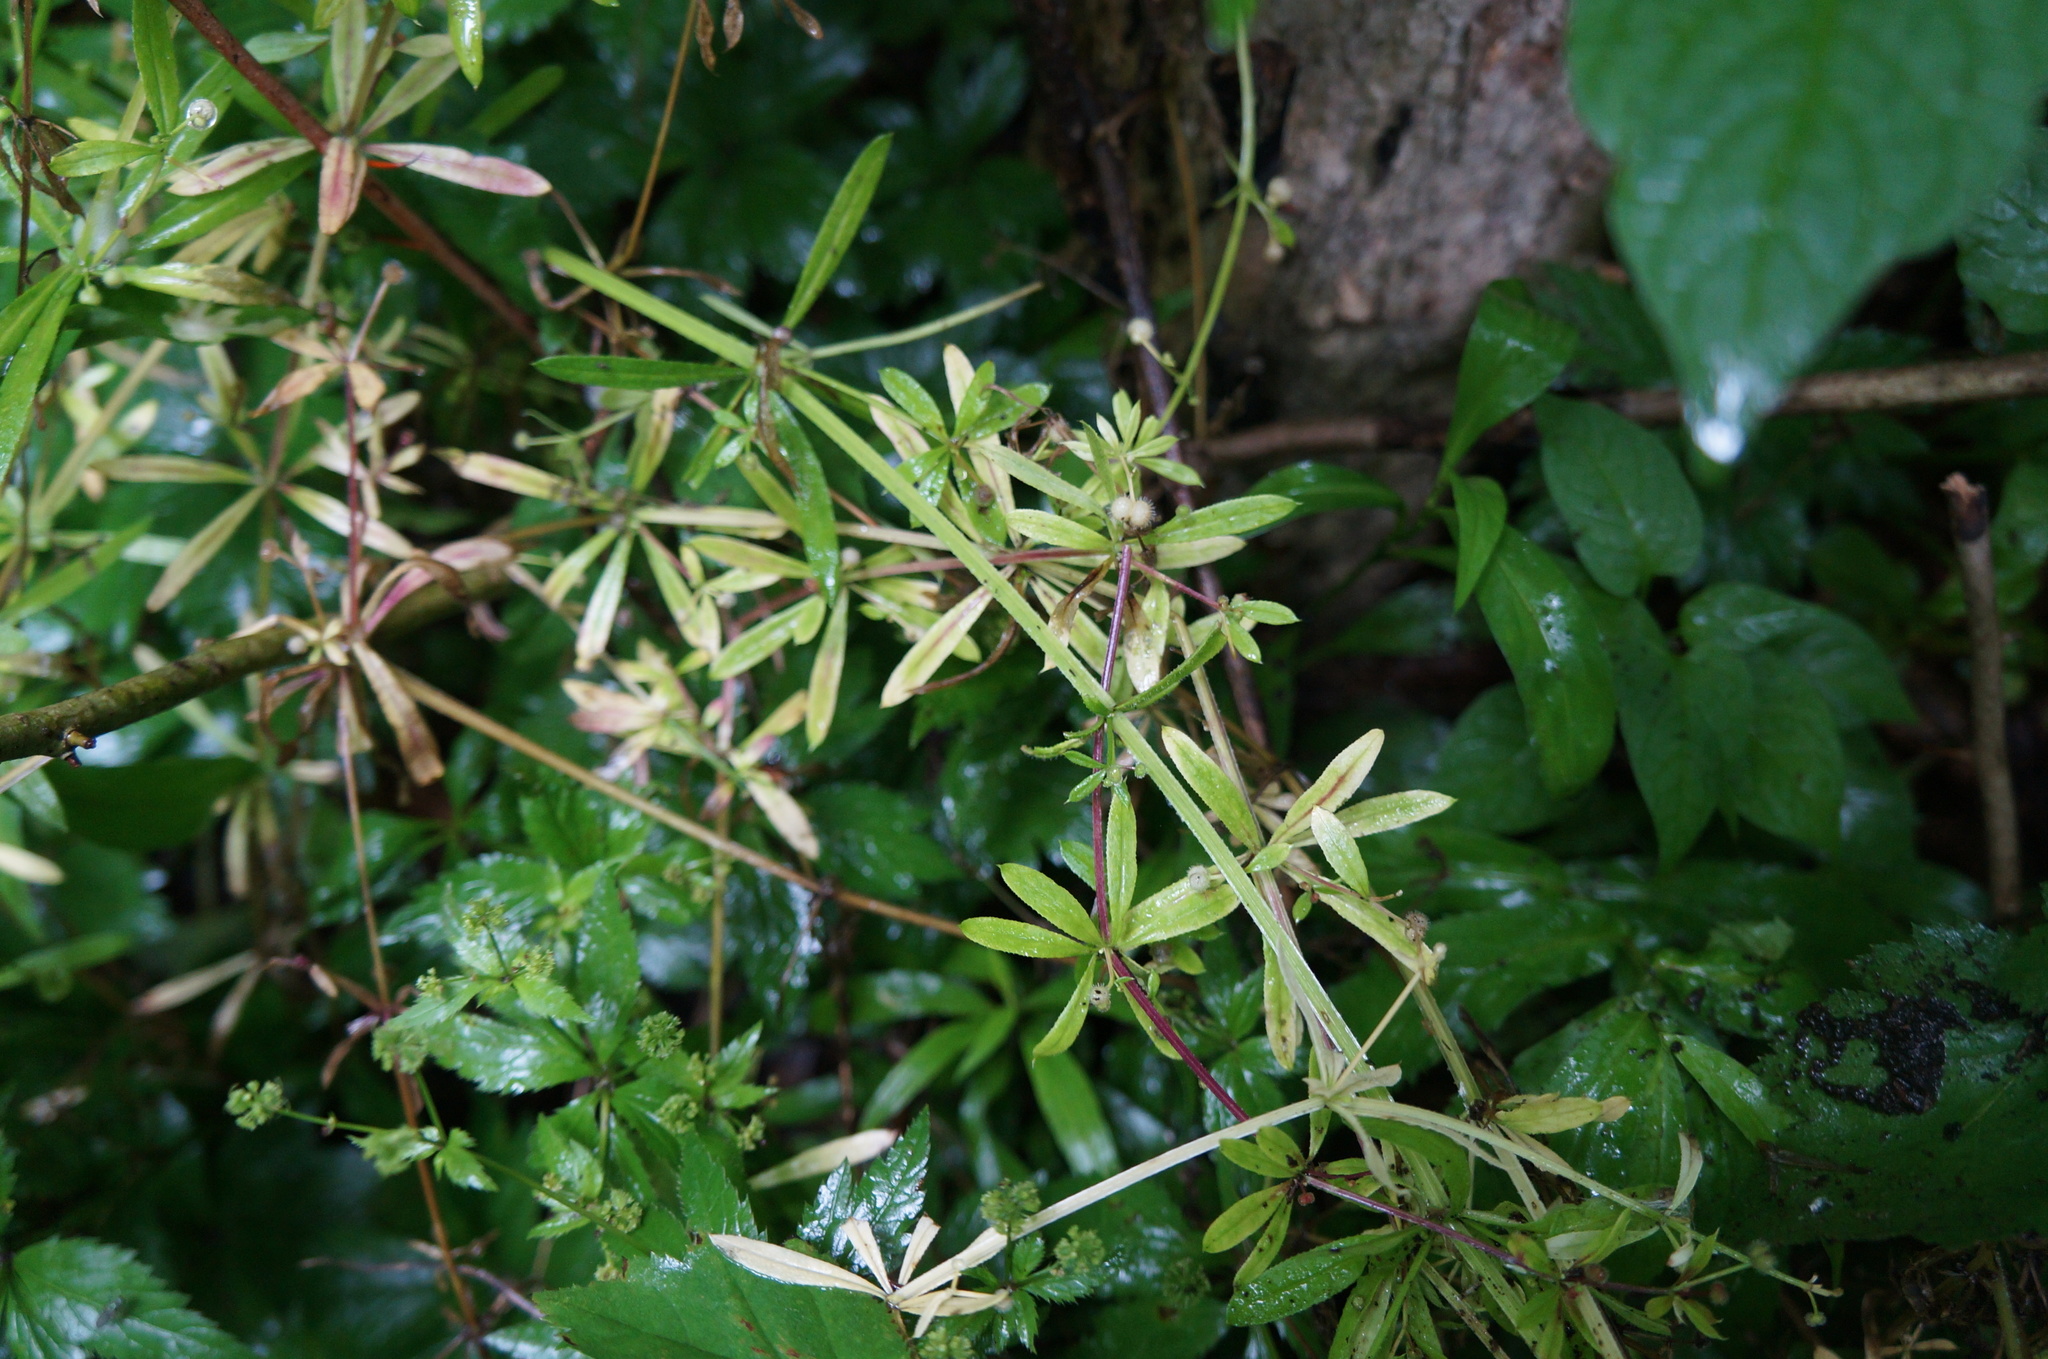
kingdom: Plantae
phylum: Tracheophyta
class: Magnoliopsida
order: Gentianales
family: Rubiaceae
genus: Galium
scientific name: Galium aparine
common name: Cleavers
